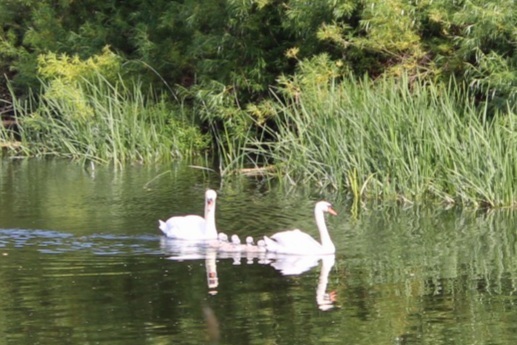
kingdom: Animalia
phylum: Chordata
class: Aves
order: Anseriformes
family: Anatidae
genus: Cygnus
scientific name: Cygnus olor
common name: Mute swan
